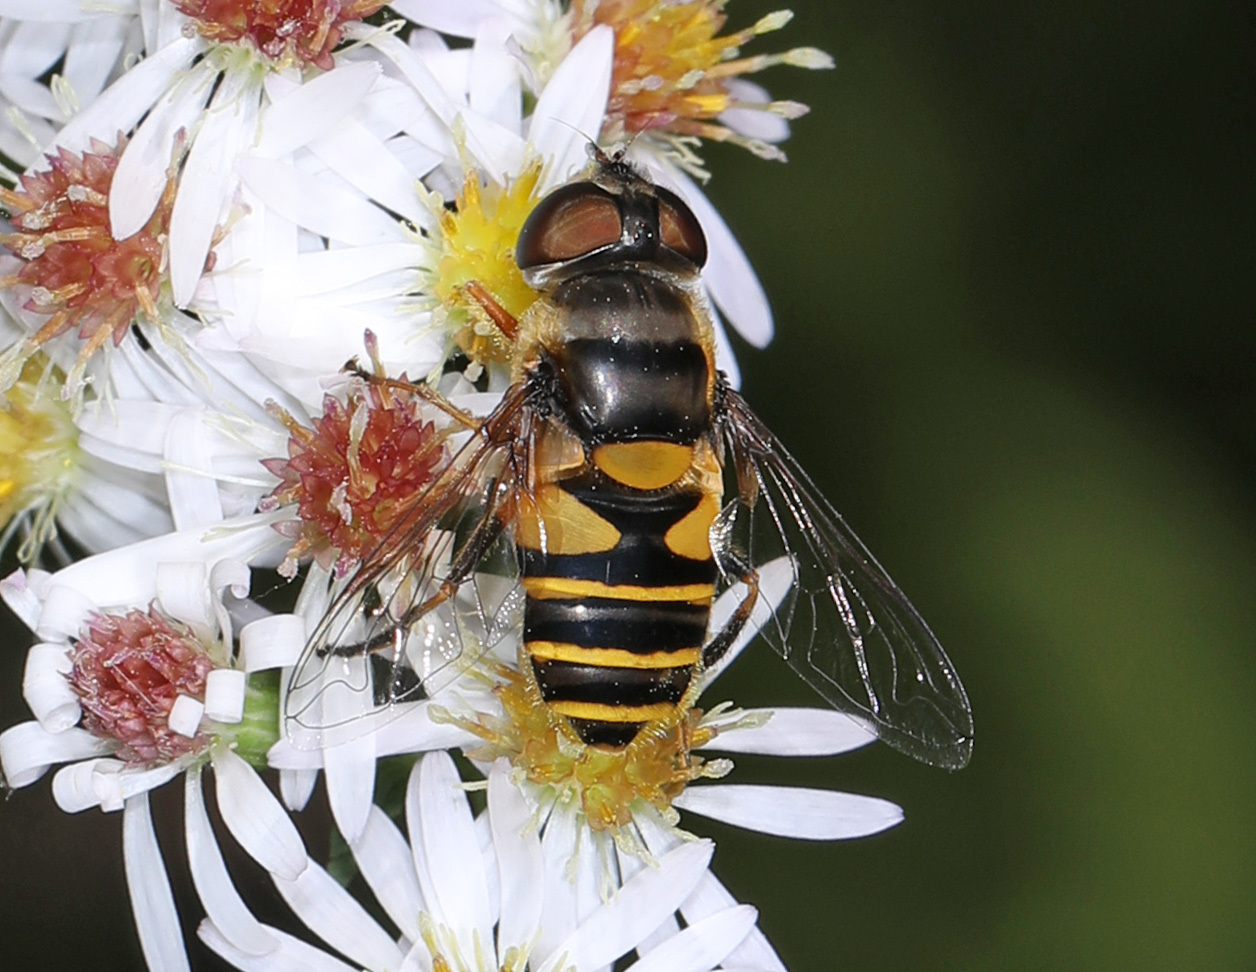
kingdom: Animalia
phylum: Arthropoda
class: Insecta
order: Diptera
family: Syrphidae
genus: Eristalis
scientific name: Eristalis transversa
